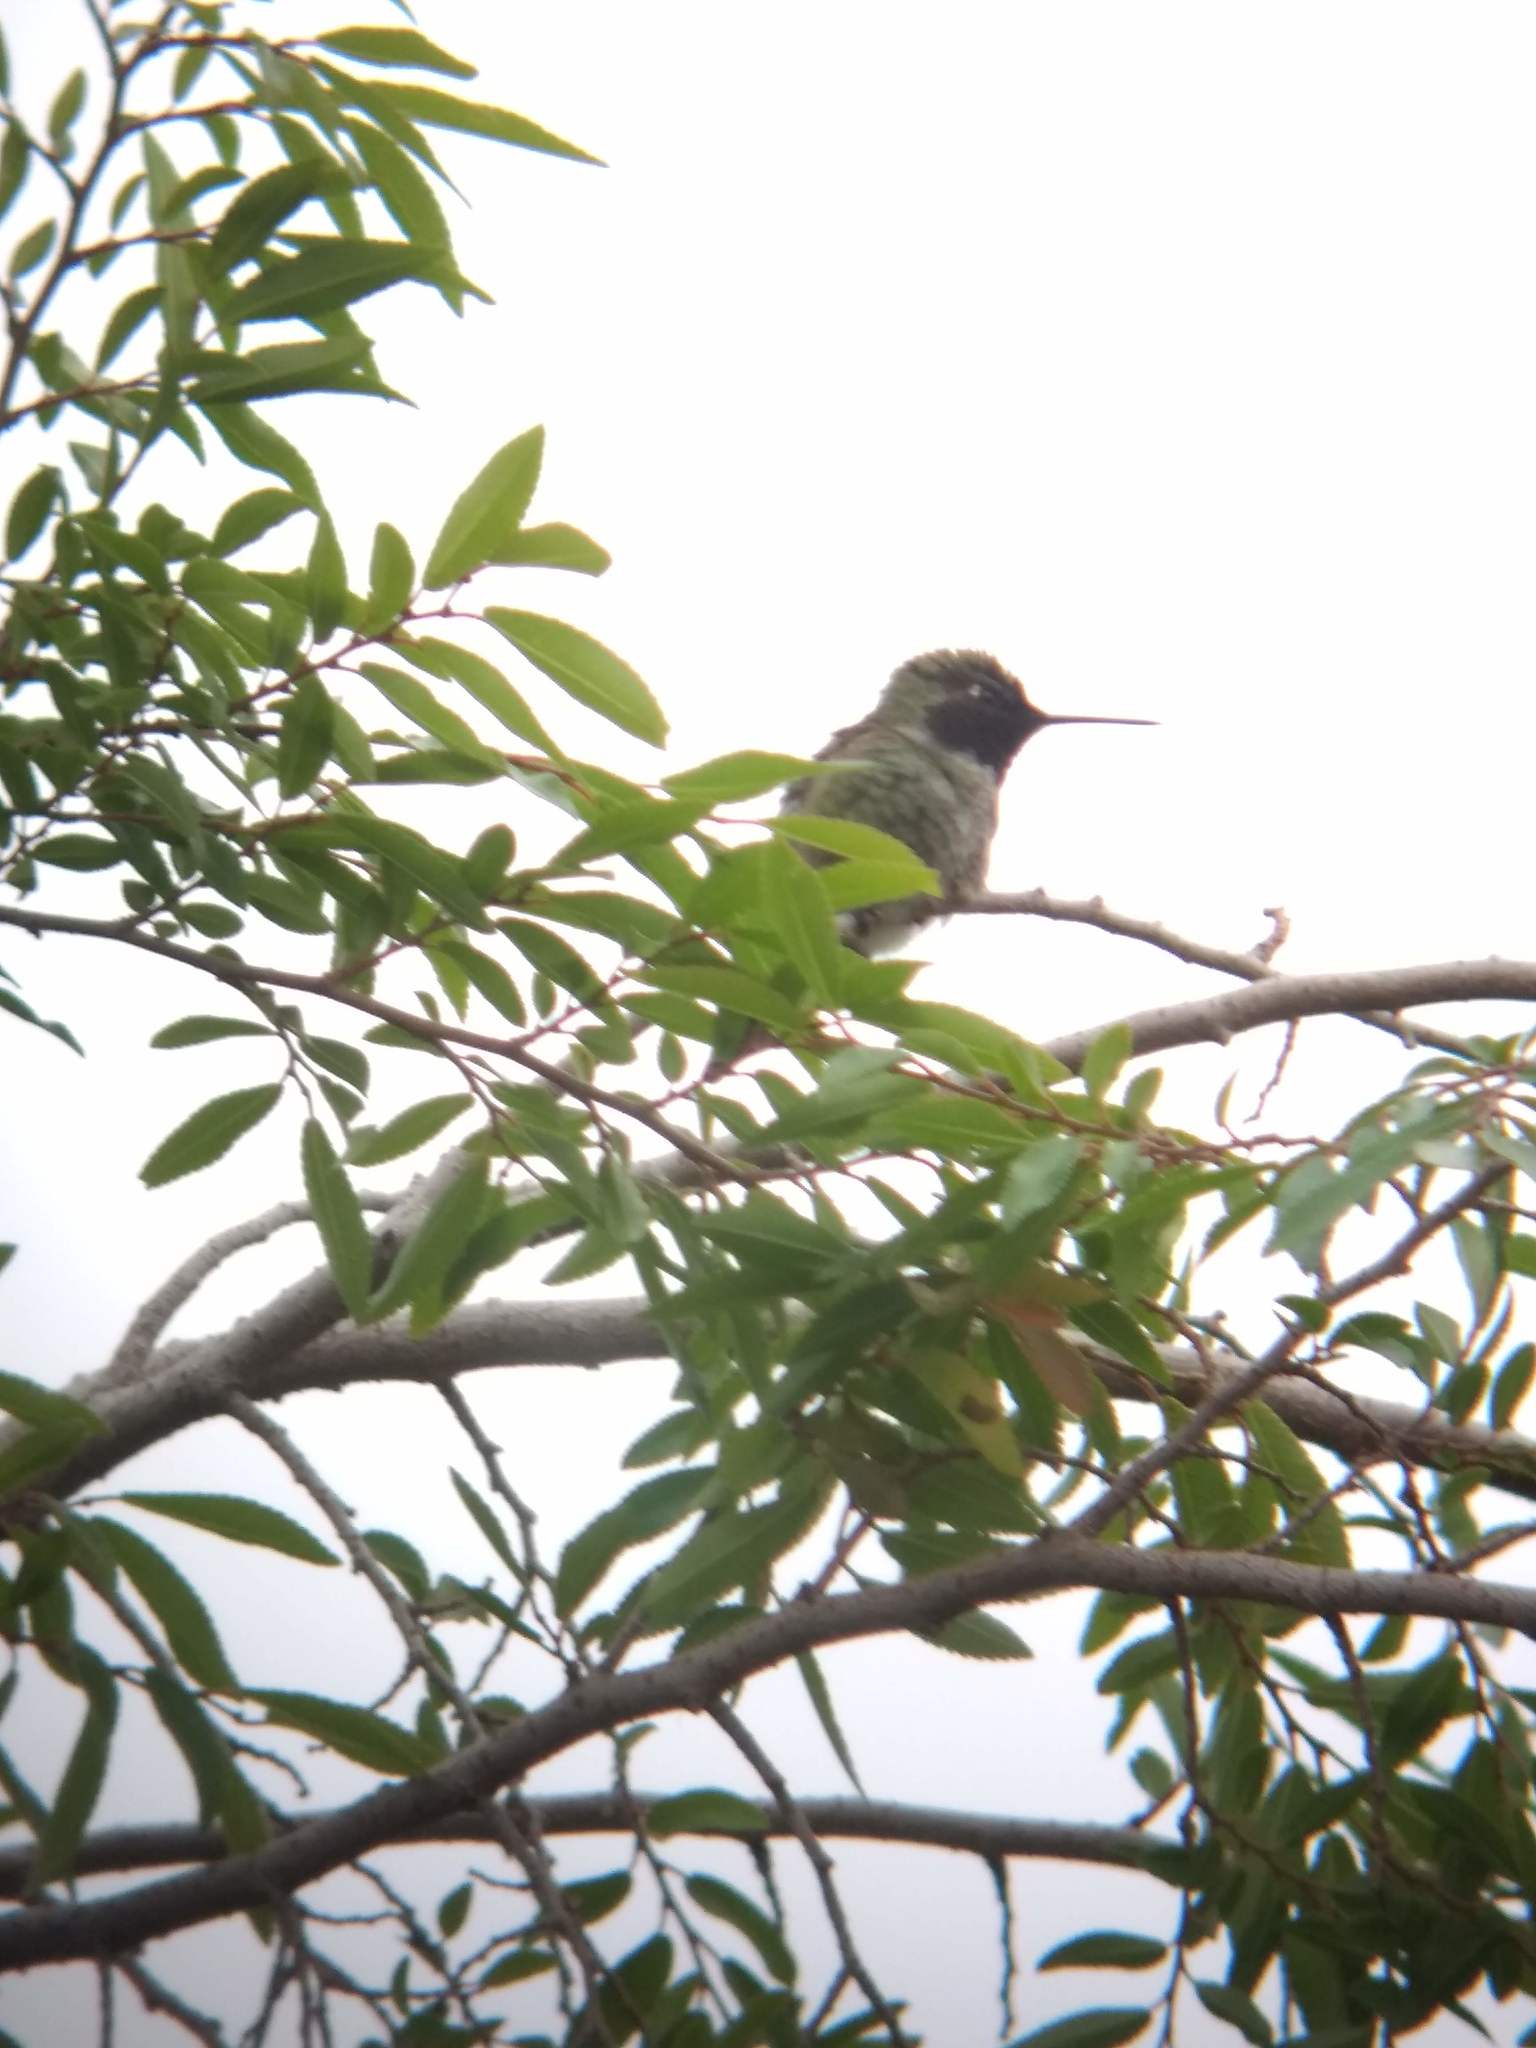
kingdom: Animalia
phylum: Chordata
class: Aves
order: Apodiformes
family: Trochilidae
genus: Calypte
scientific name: Calypte anna
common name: Anna's hummingbird
